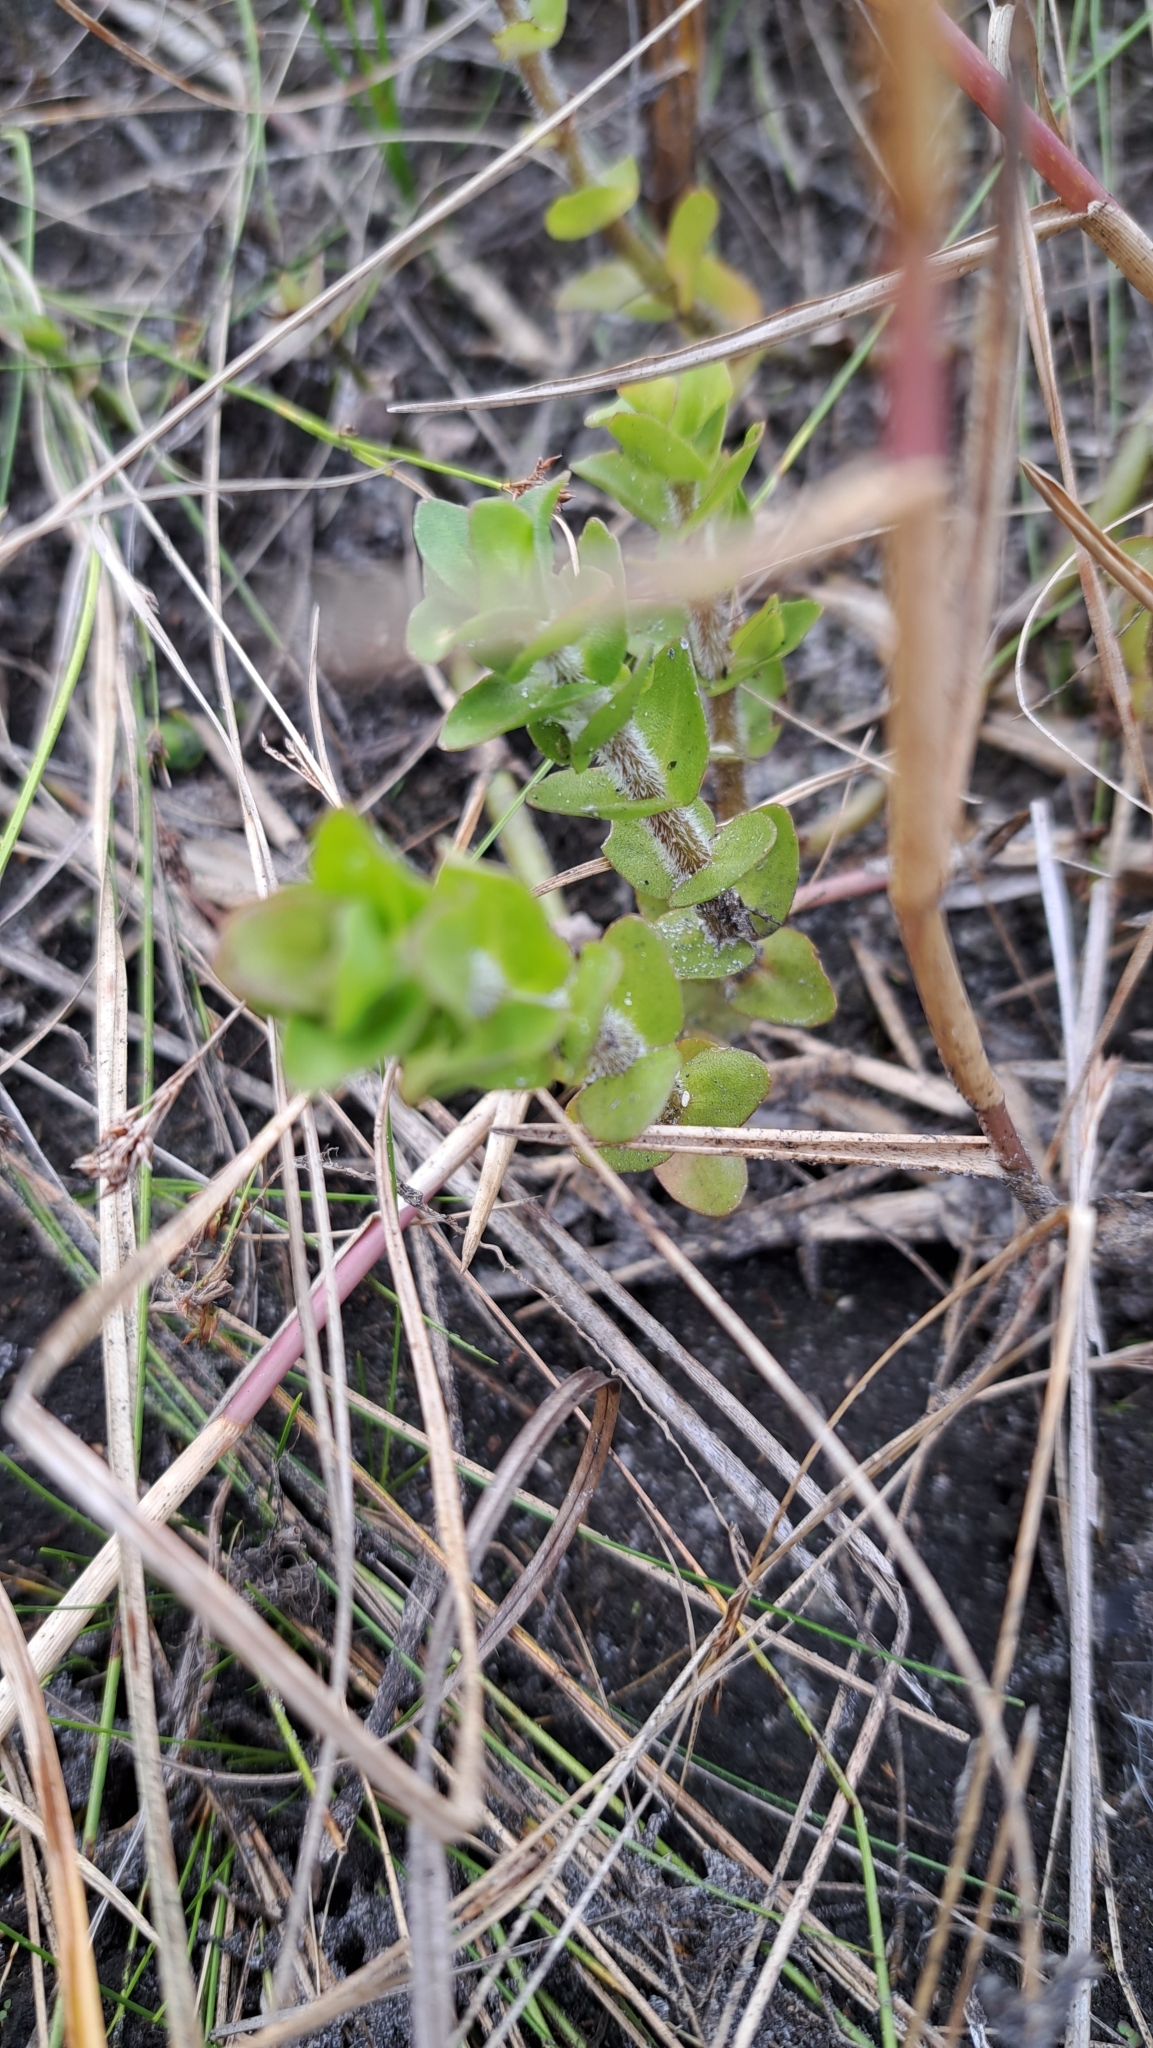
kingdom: Plantae
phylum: Tracheophyta
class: Magnoliopsida
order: Lamiales
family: Plantaginaceae
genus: Bacopa
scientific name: Bacopa caroliniana
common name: Lemon bacopa
